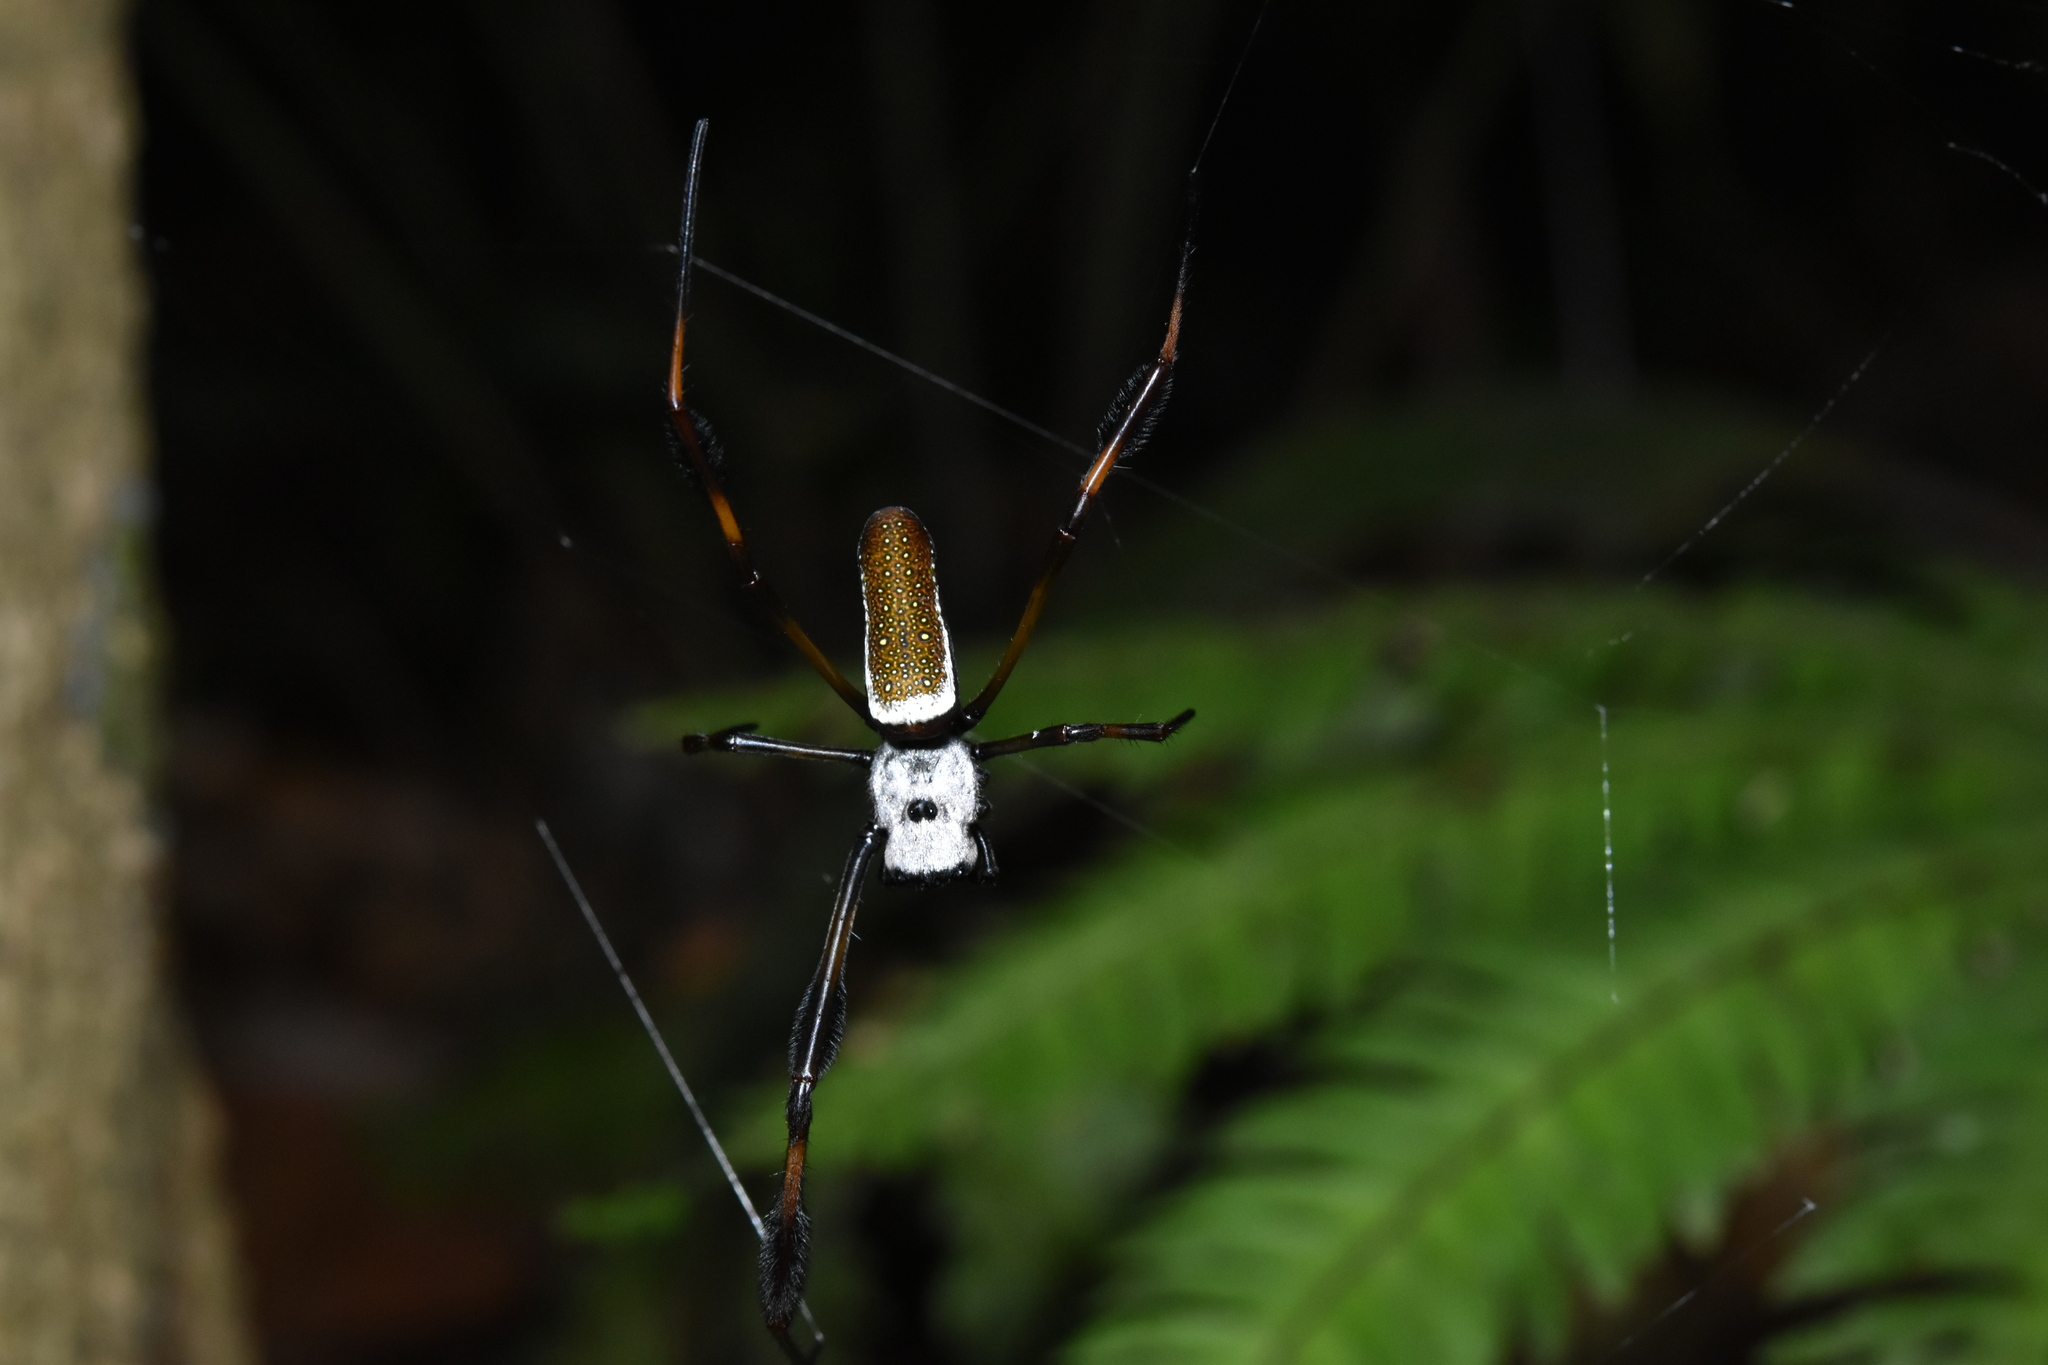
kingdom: Animalia
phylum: Arthropoda
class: Arachnida
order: Araneae
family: Araneidae
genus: Trichonephila
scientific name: Trichonephila clavipes
